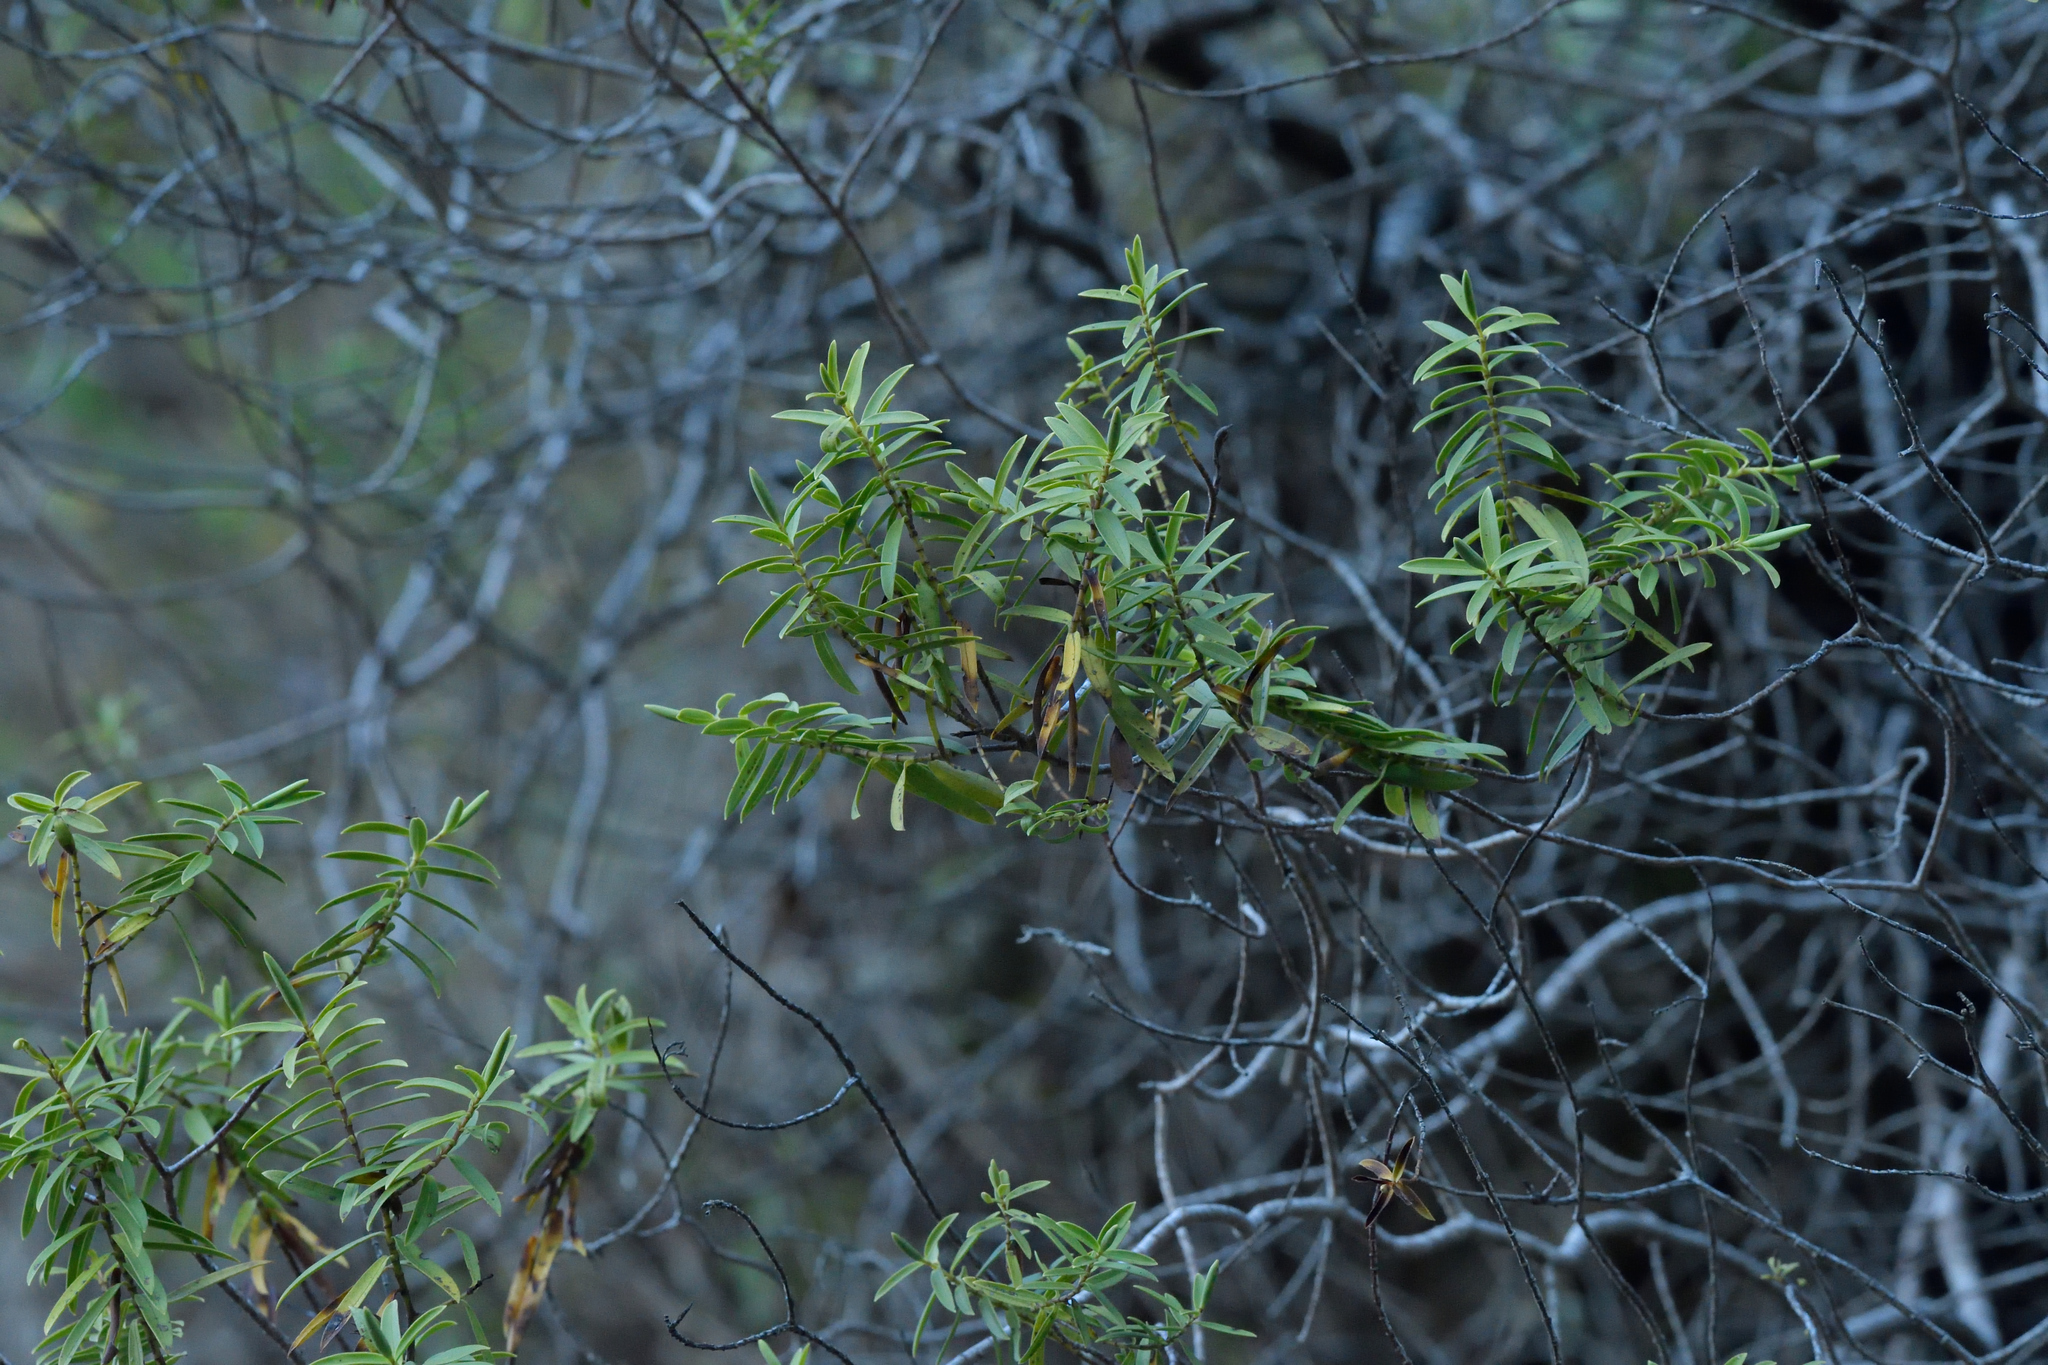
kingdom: Plantae
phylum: Tracheophyta
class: Magnoliopsida
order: Lamiales
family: Plantaginaceae
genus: Veronica
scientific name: Veronica strictissima
